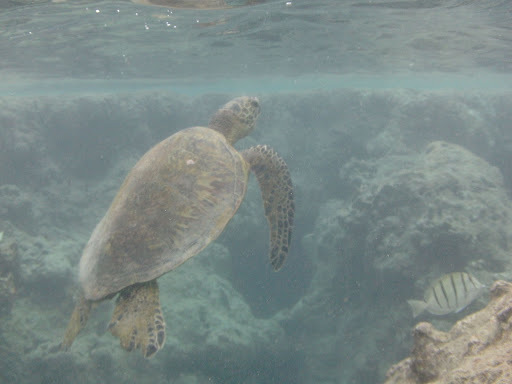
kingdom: Animalia
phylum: Chordata
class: Testudines
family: Cheloniidae
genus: Chelonia
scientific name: Chelonia mydas
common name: Green turtle
